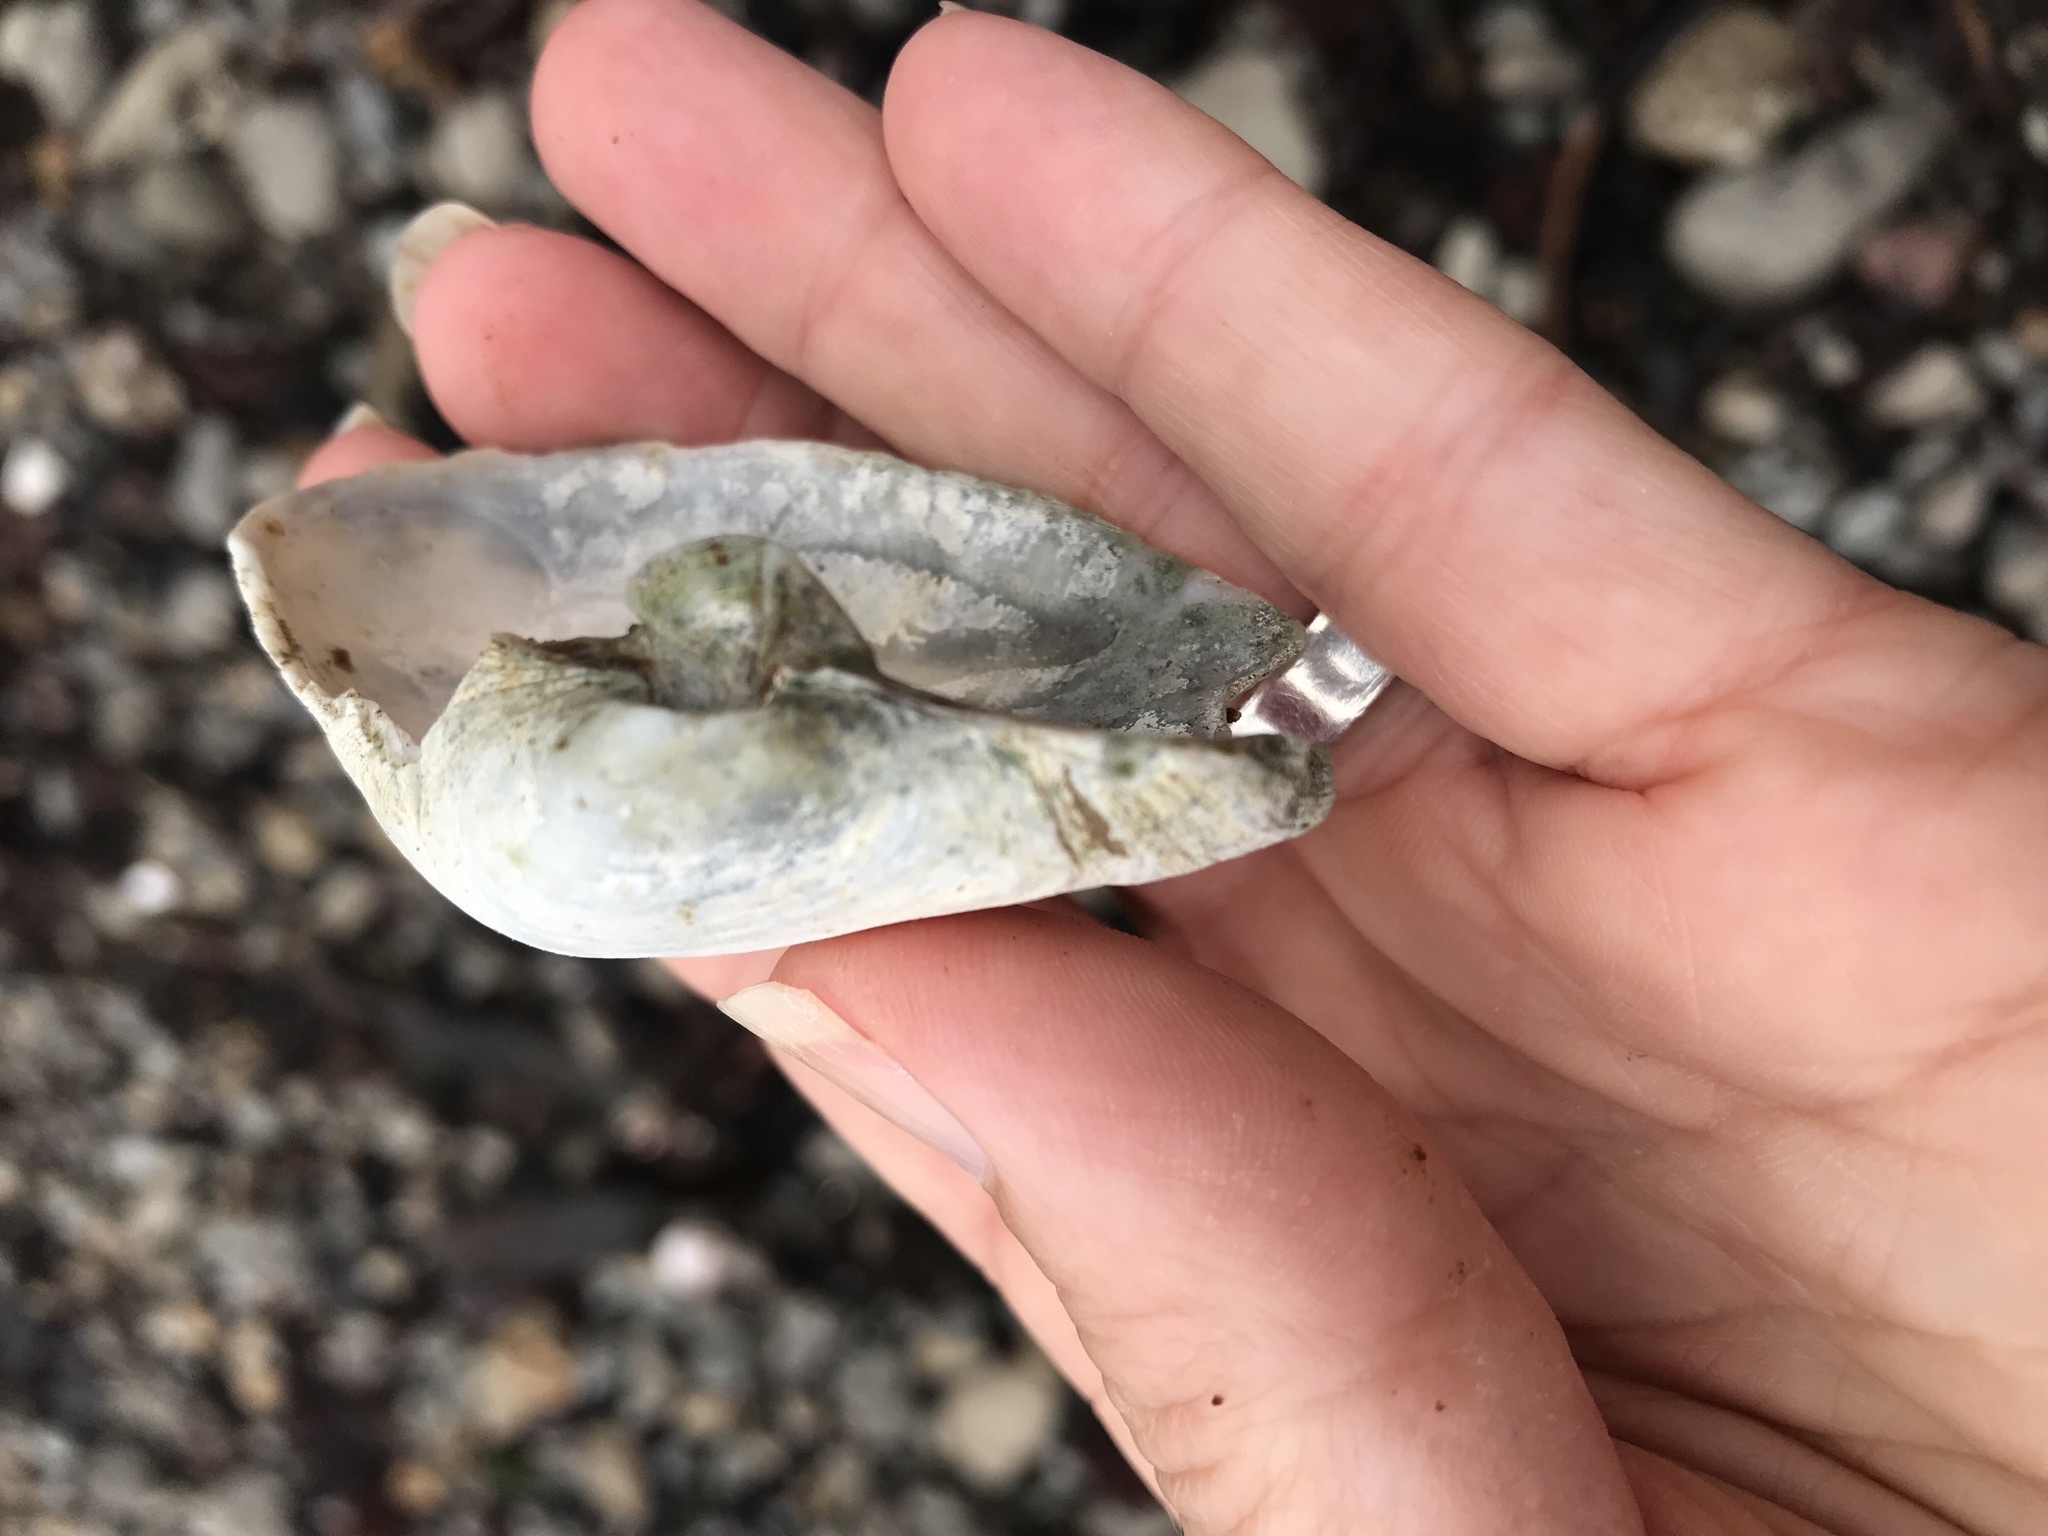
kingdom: Animalia
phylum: Mollusca
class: Bivalvia
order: Myida
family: Myidae
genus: Platyodon
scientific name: Platyodon cancellatus
